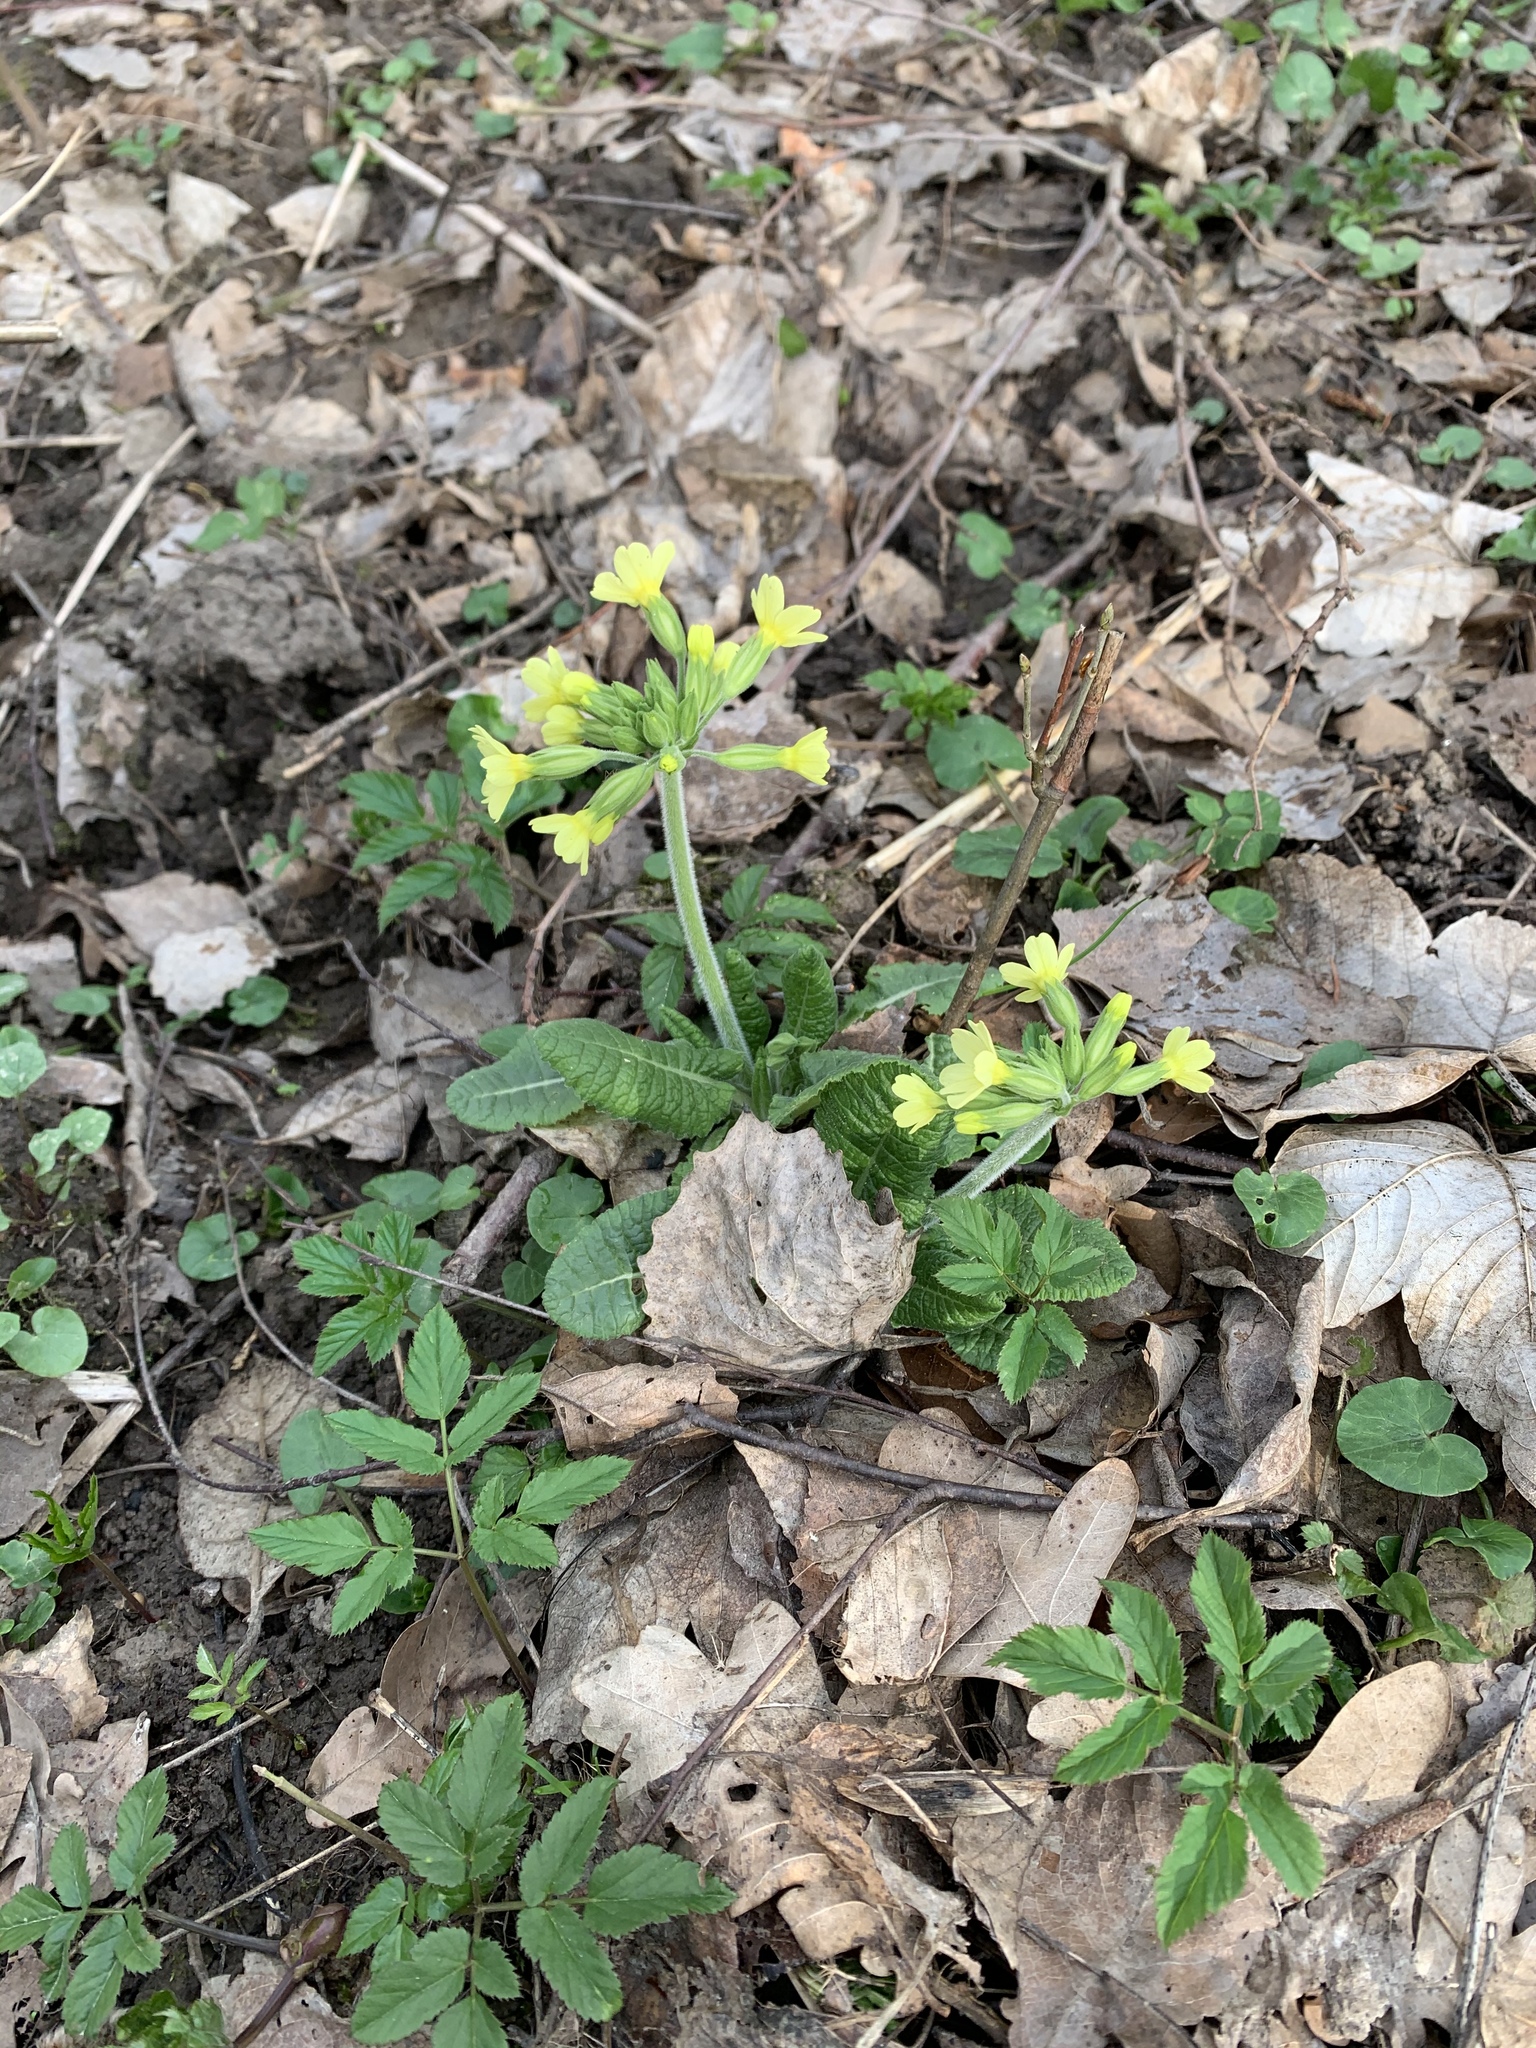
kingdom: Plantae
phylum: Tracheophyta
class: Magnoliopsida
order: Ericales
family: Primulaceae
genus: Primula
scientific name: Primula elatior
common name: Oxlip
